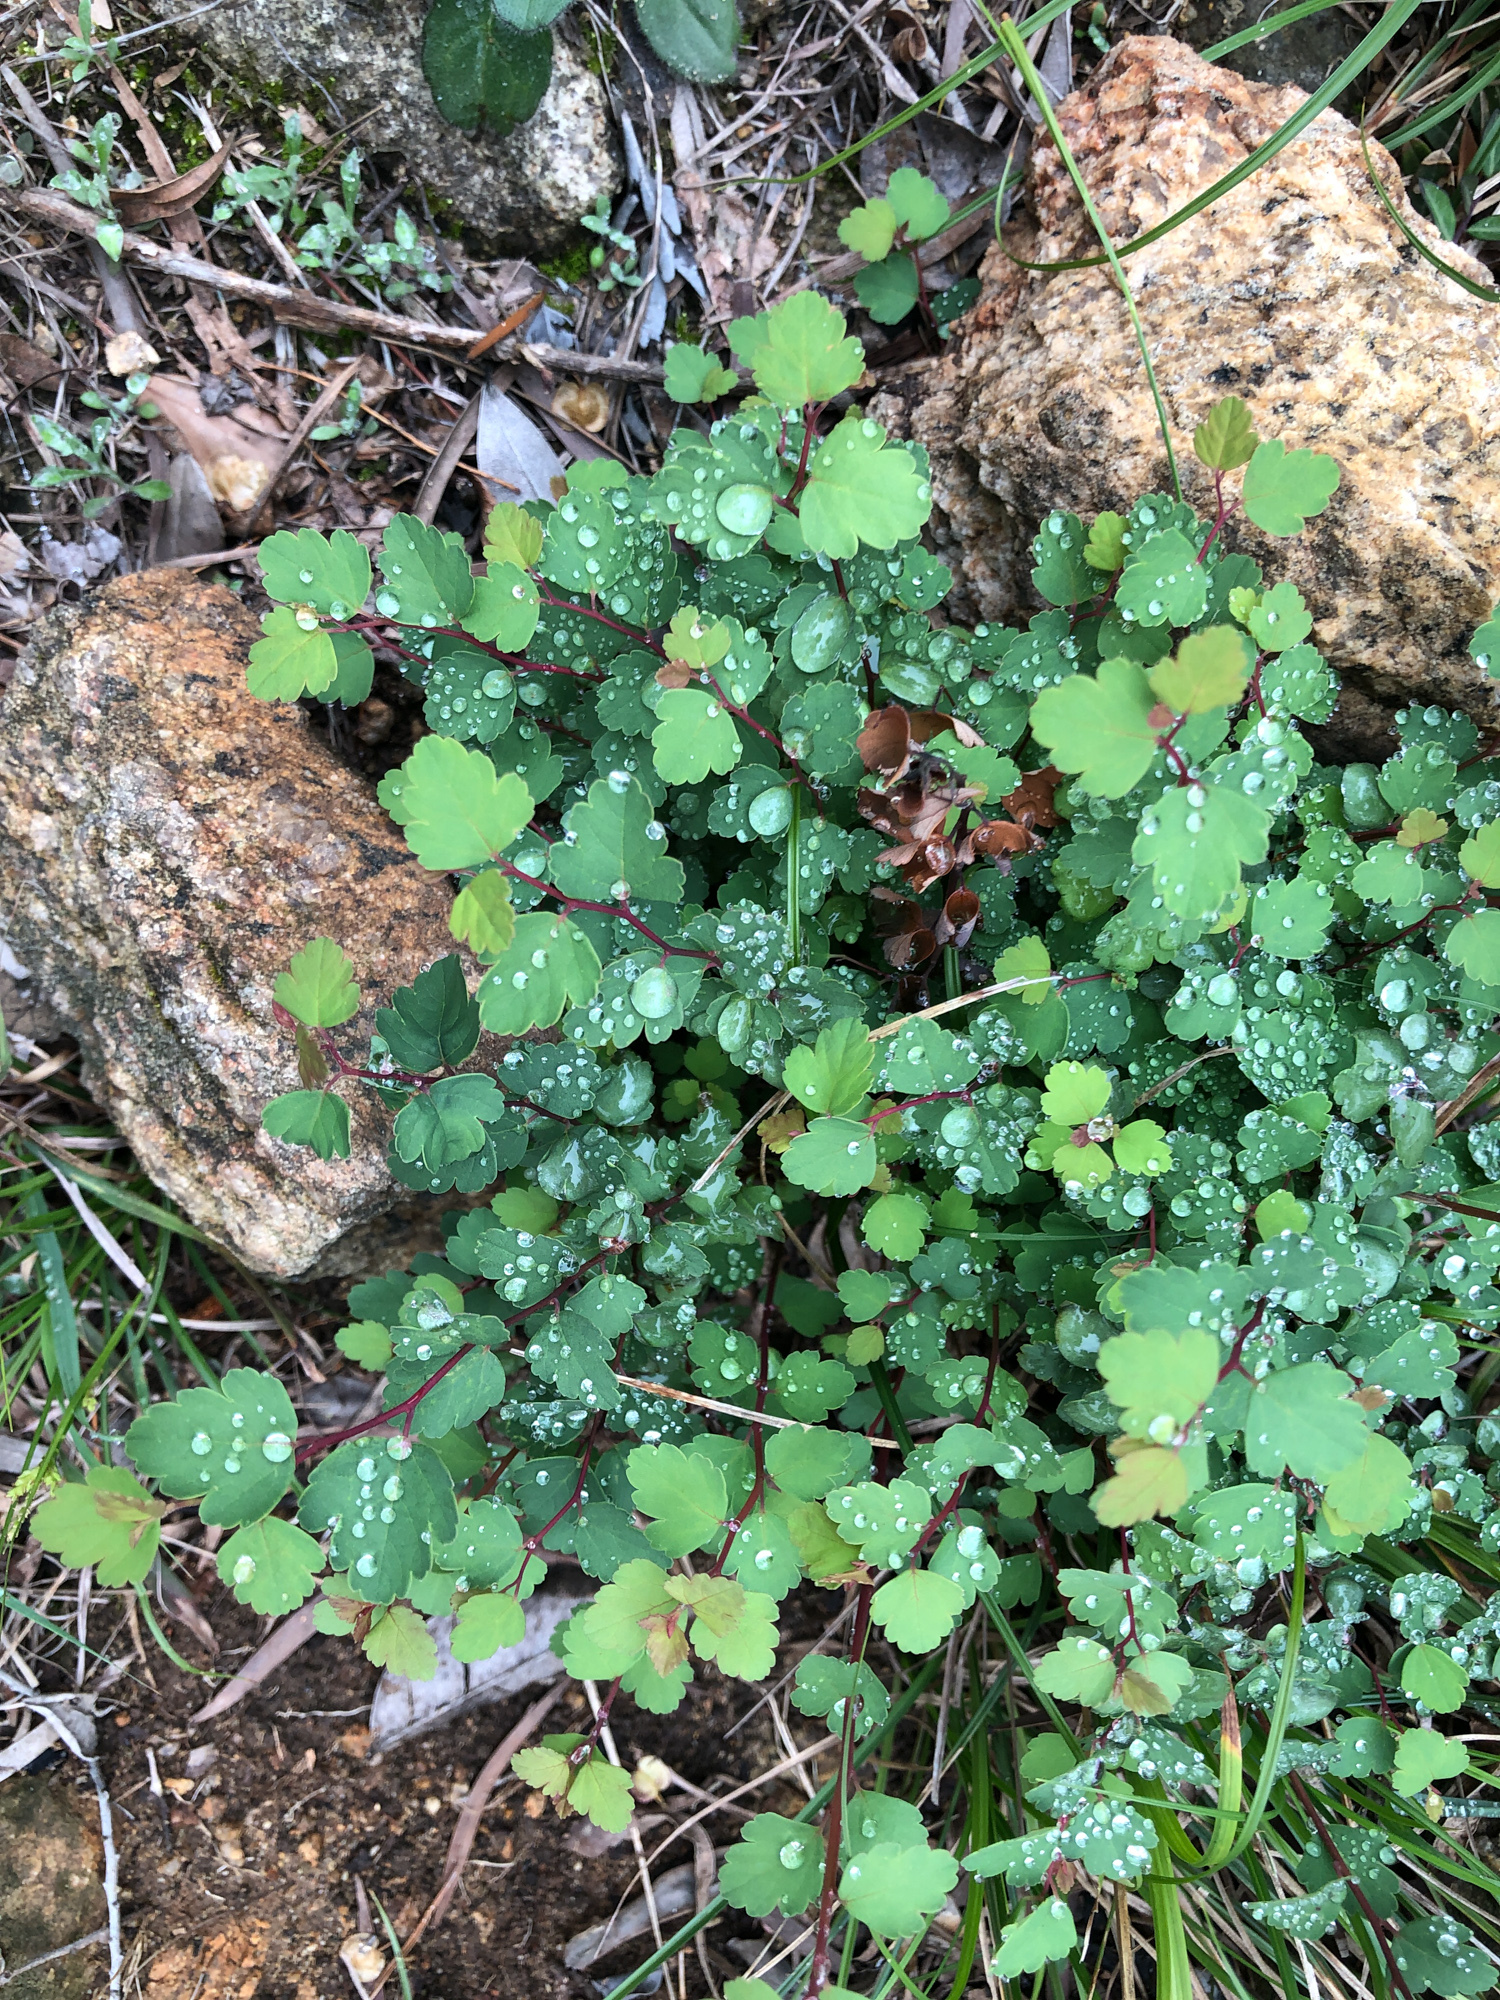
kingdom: Plantae
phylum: Tracheophyta
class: Magnoliopsida
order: Rosales
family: Rosaceae
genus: Spiraea
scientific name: Spiraea blumei
